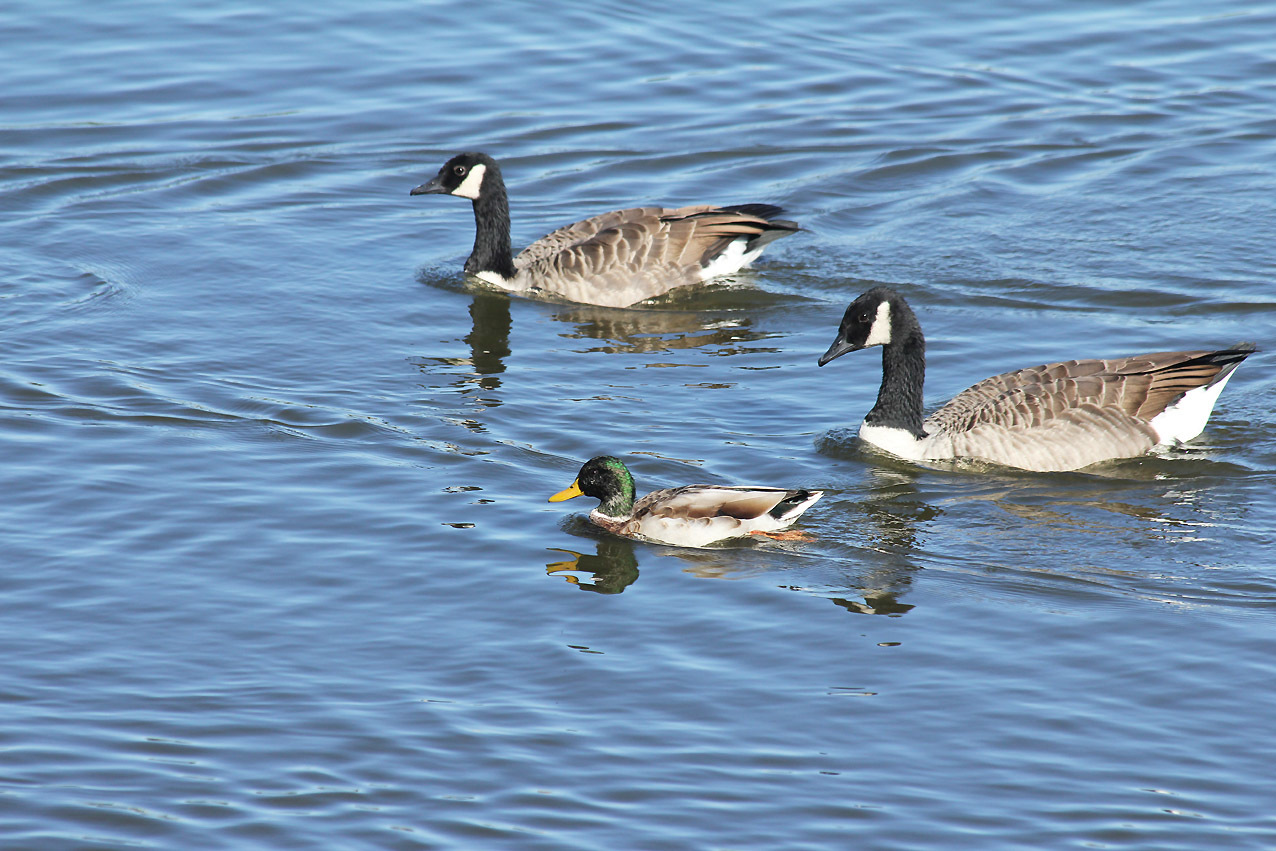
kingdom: Animalia
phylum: Chordata
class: Aves
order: Anseriformes
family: Anatidae
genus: Anas
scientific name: Anas platyrhynchos
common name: Mallard
